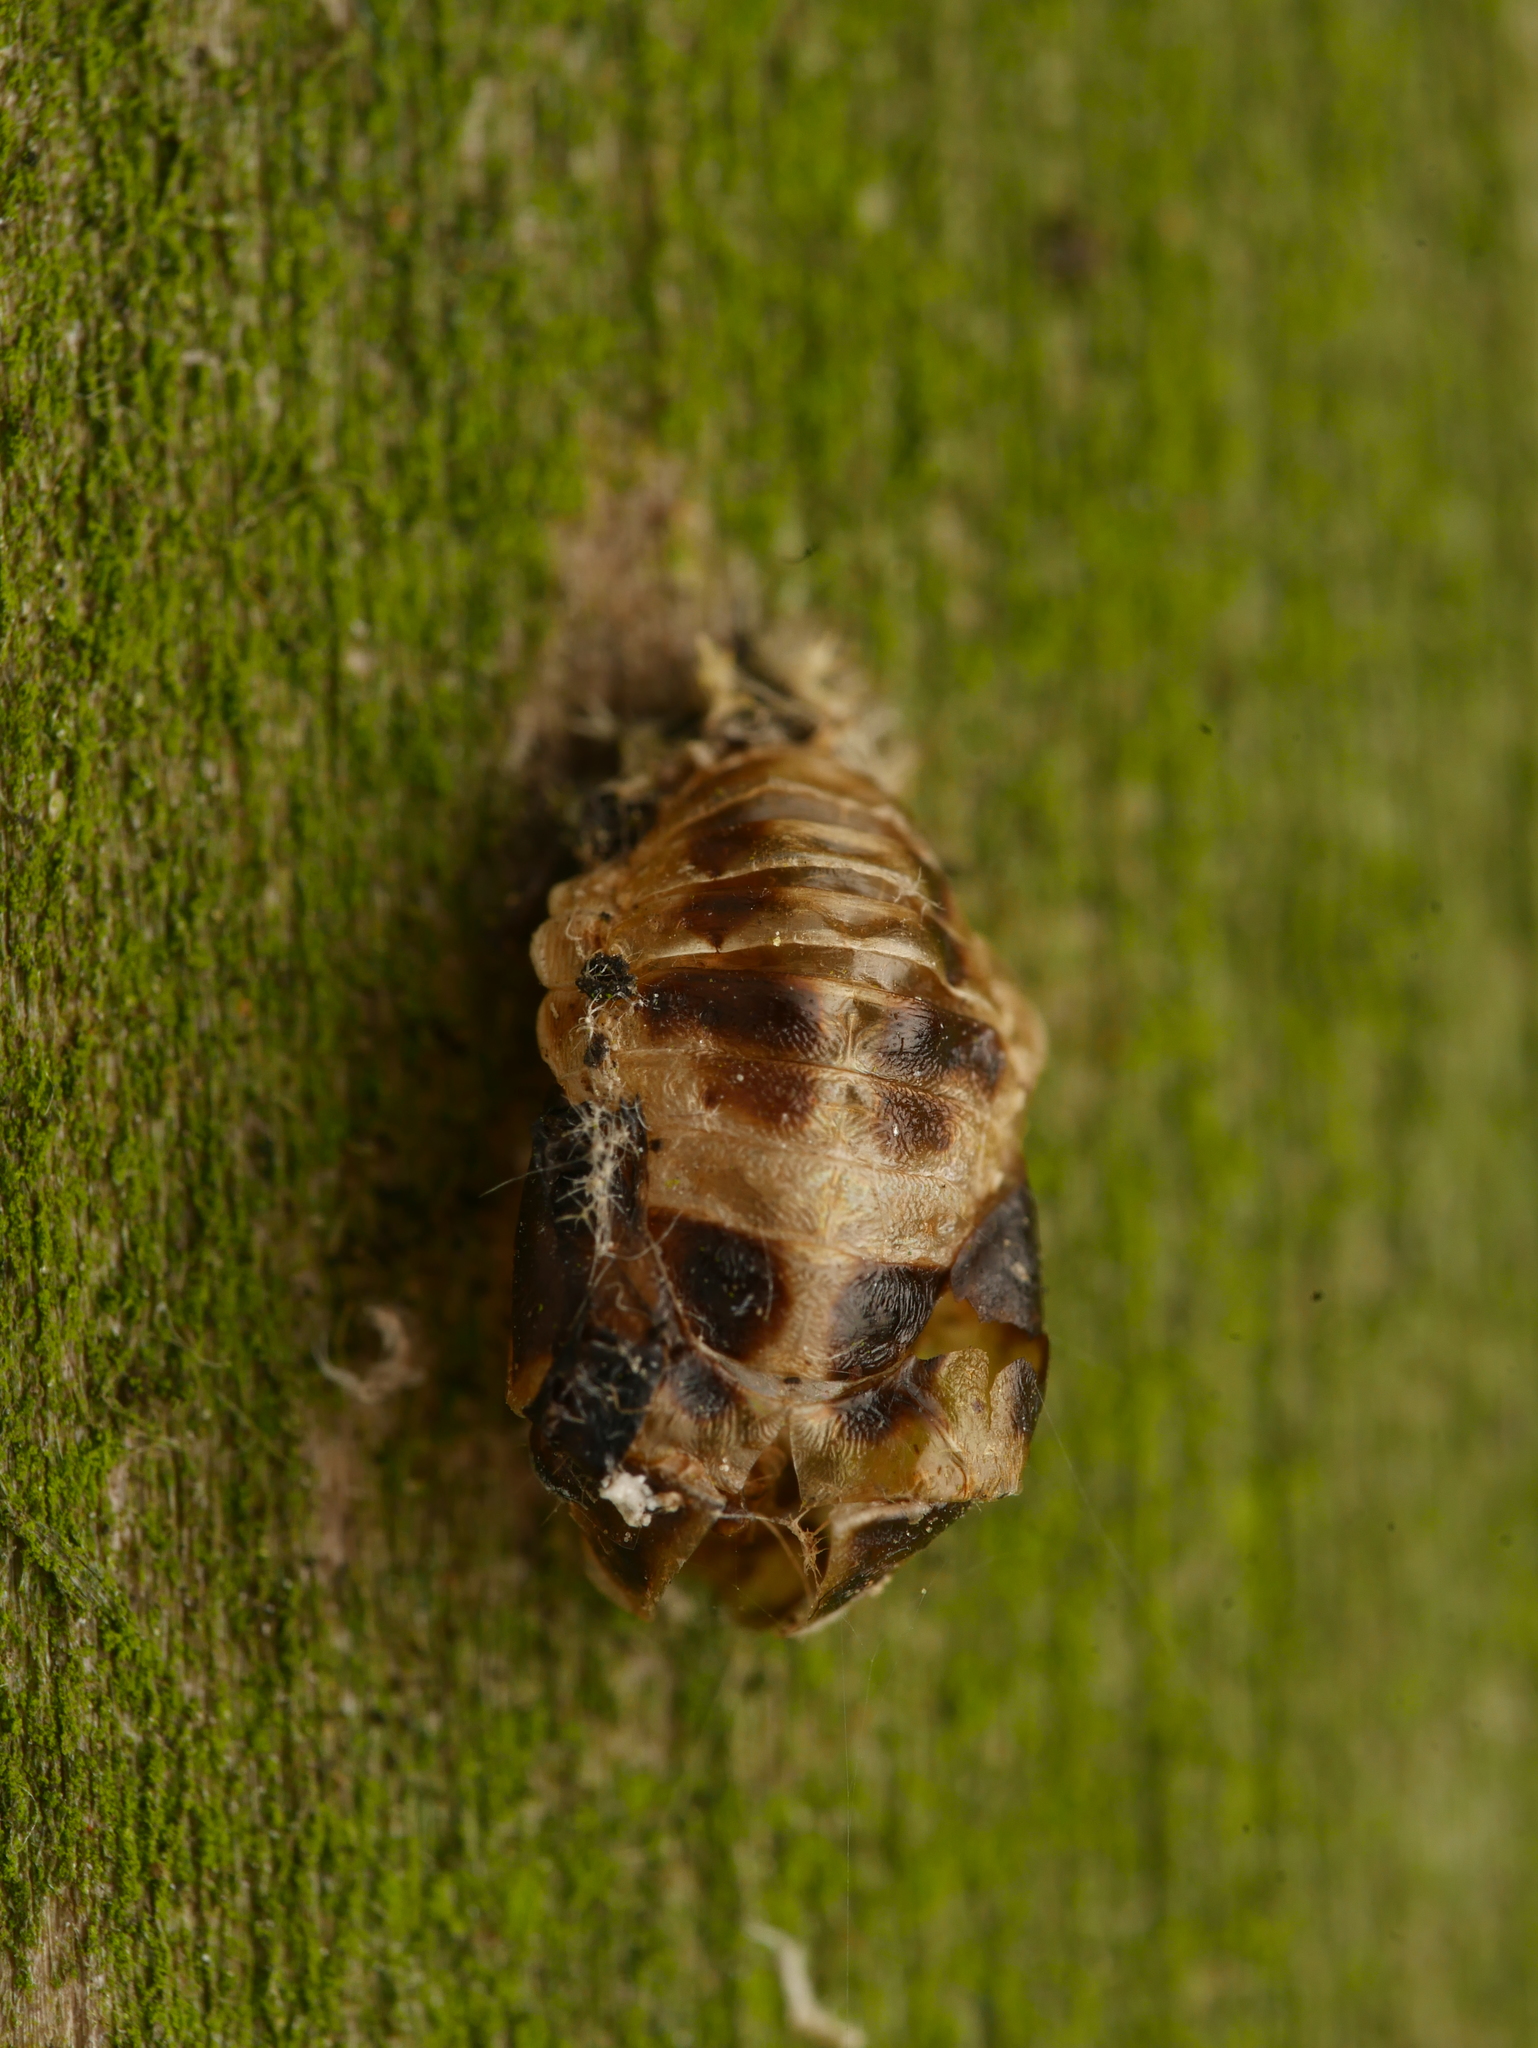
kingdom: Animalia
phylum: Arthropoda
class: Insecta
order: Coleoptera
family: Coccinellidae
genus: Harmonia
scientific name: Harmonia axyridis
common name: Harlequin ladybird
